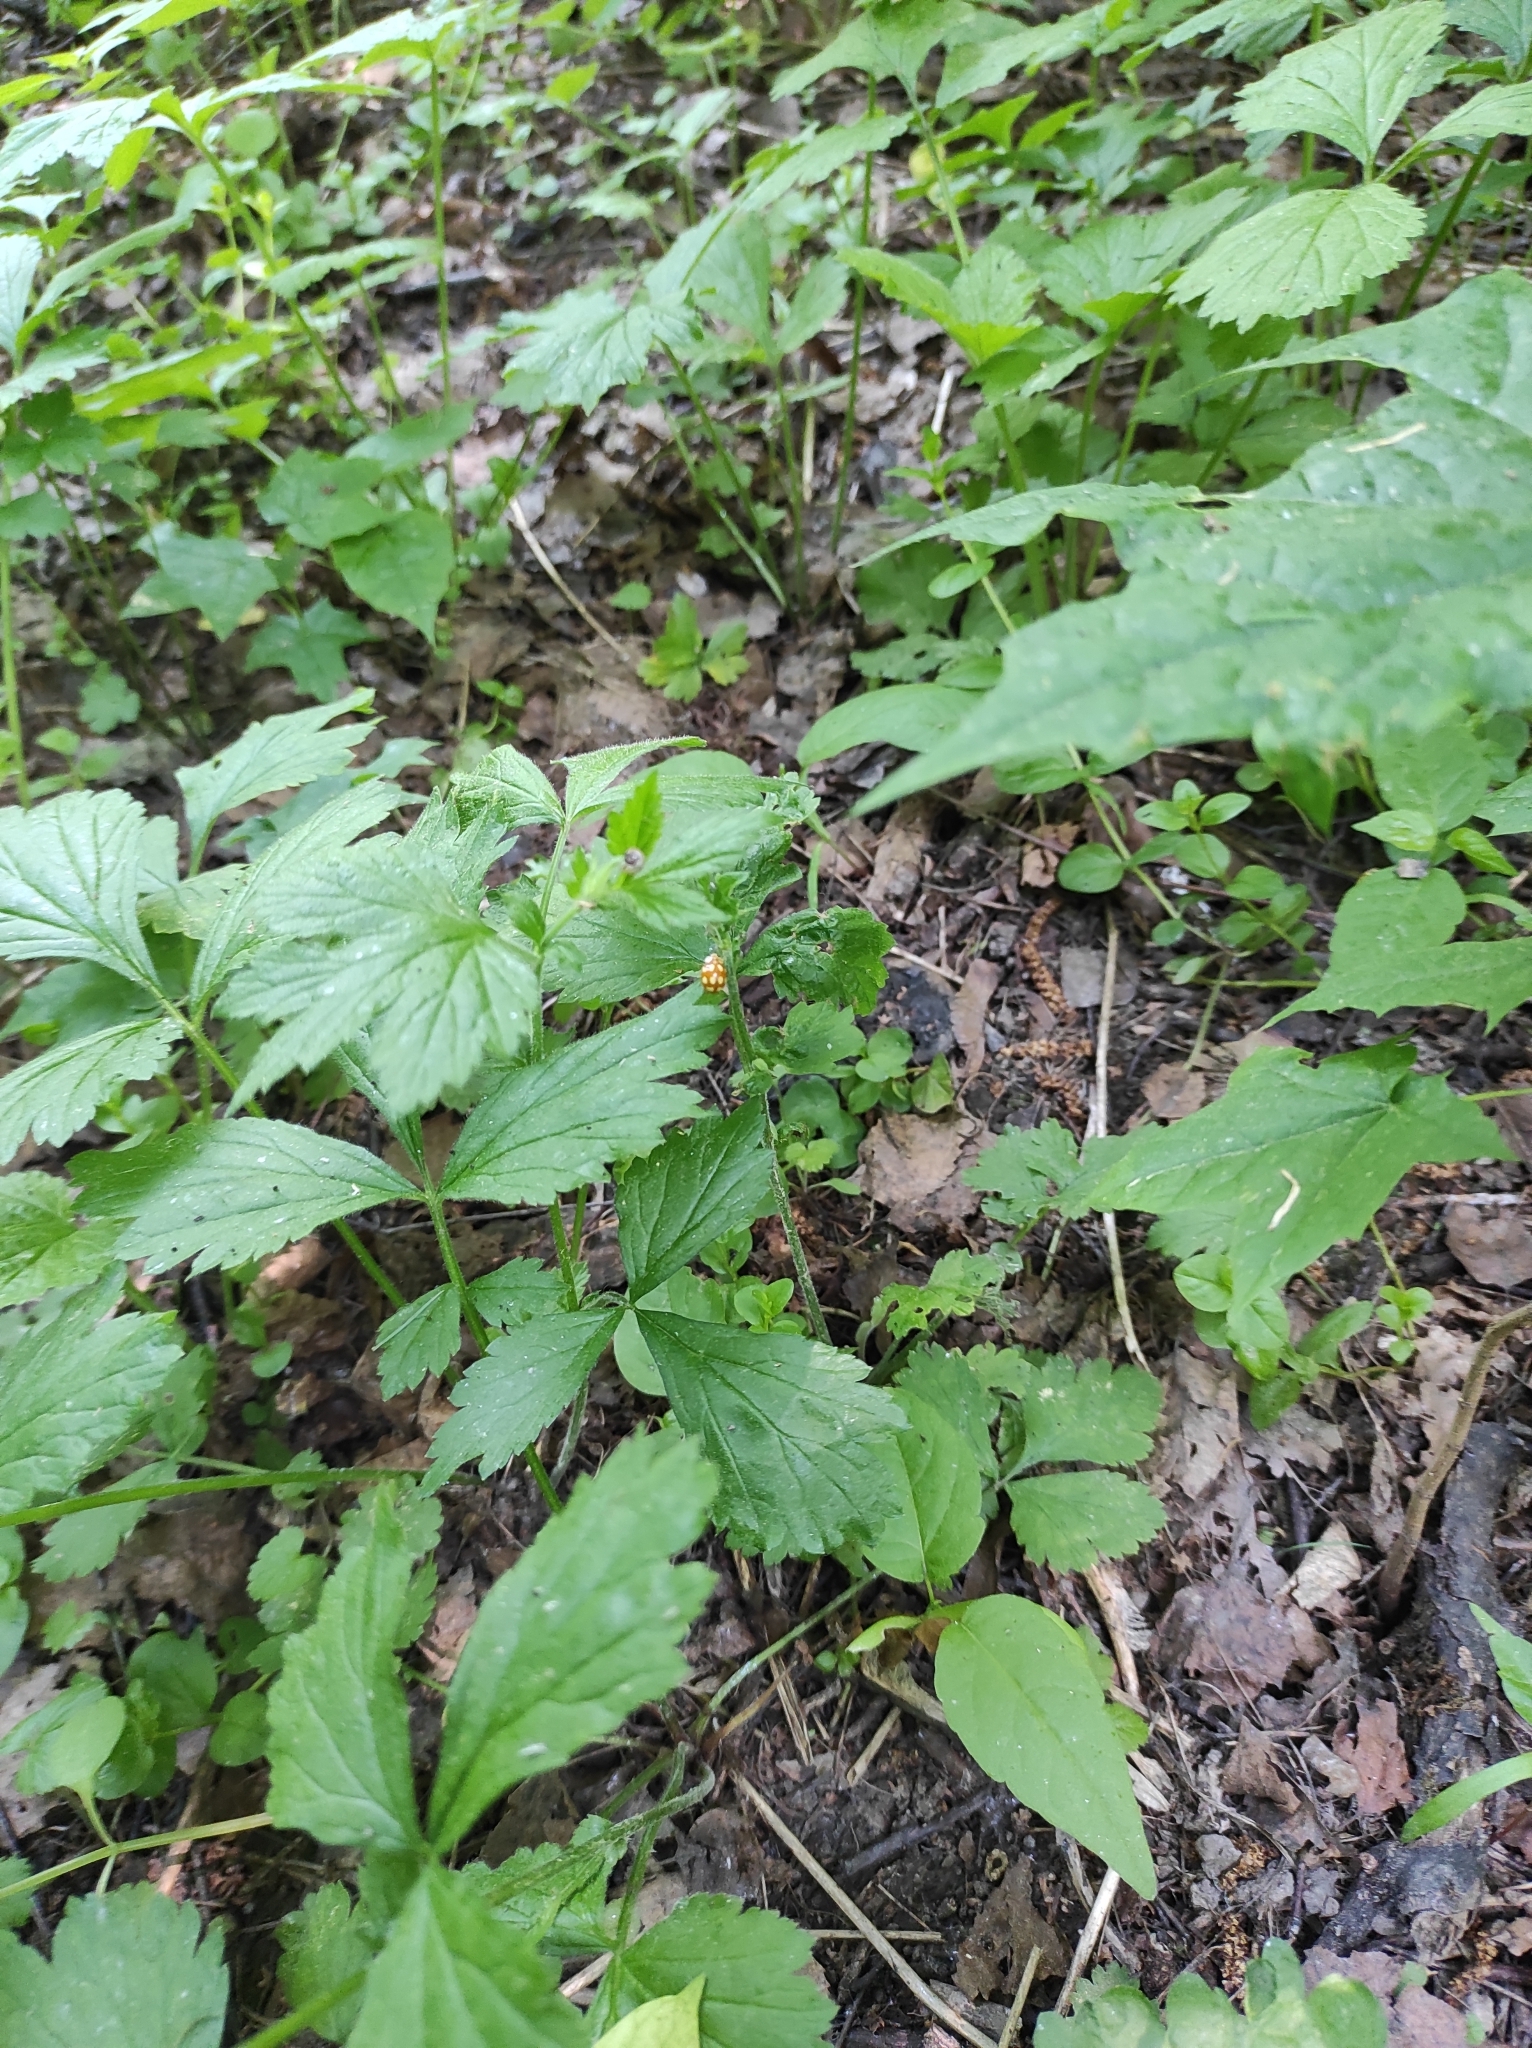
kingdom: Animalia
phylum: Arthropoda
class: Insecta
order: Coleoptera
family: Coccinellidae
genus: Calvia
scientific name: Calvia decemguttata
